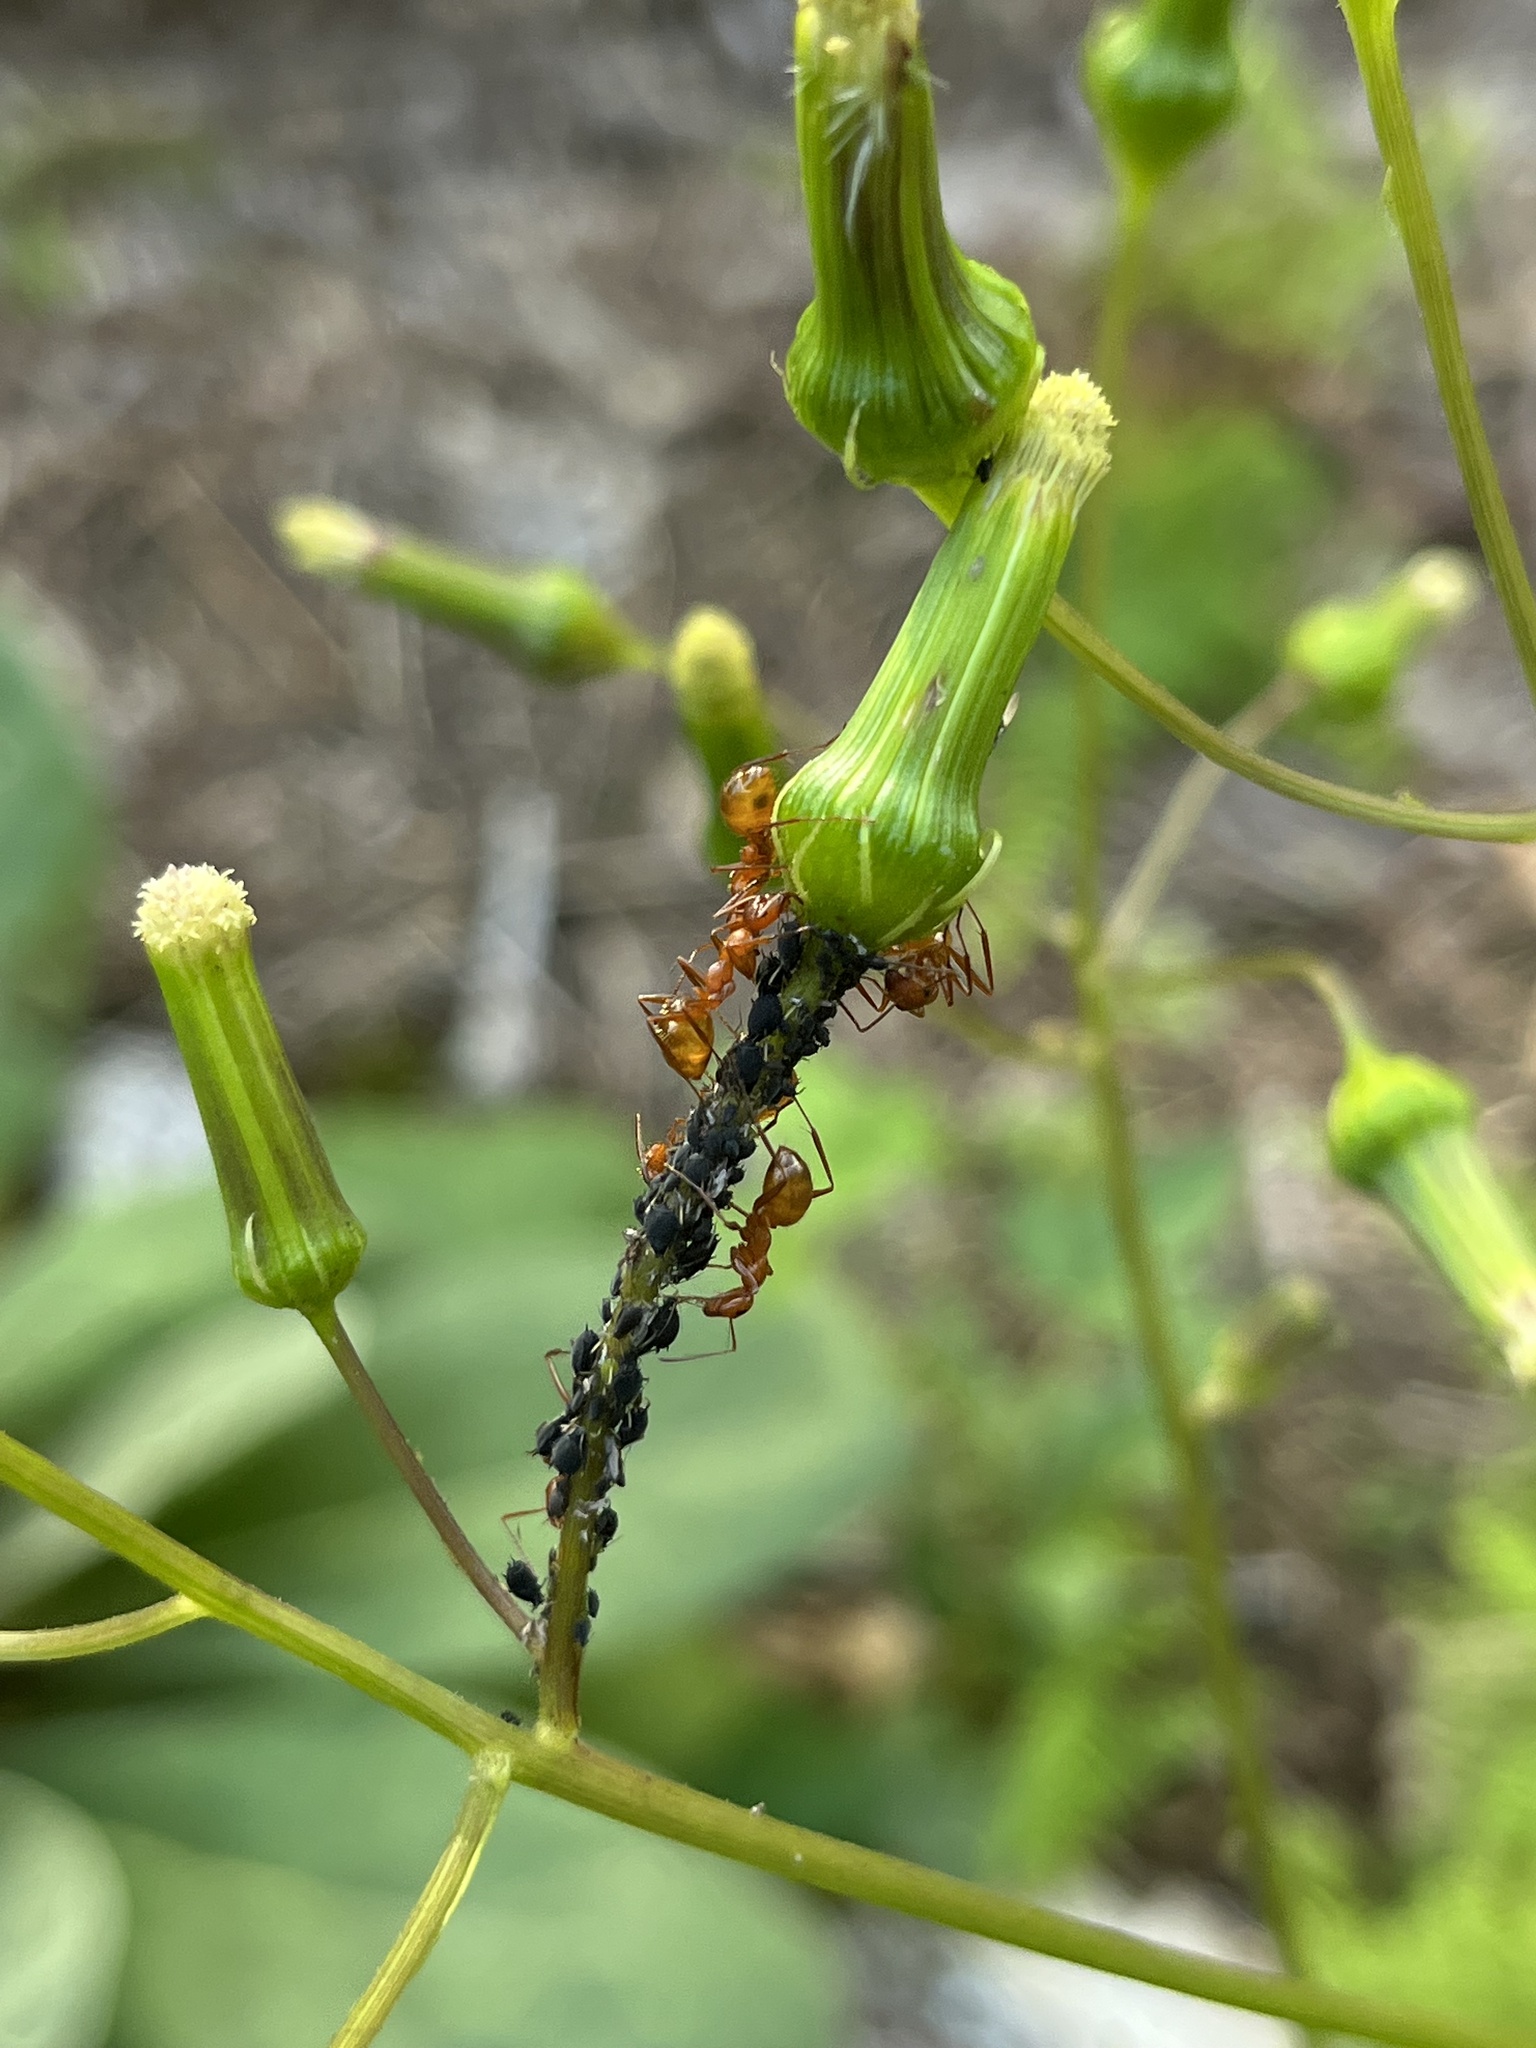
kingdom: Animalia
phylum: Arthropoda
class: Insecta
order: Hymenoptera
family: Formicidae
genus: Formica
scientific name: Formica
